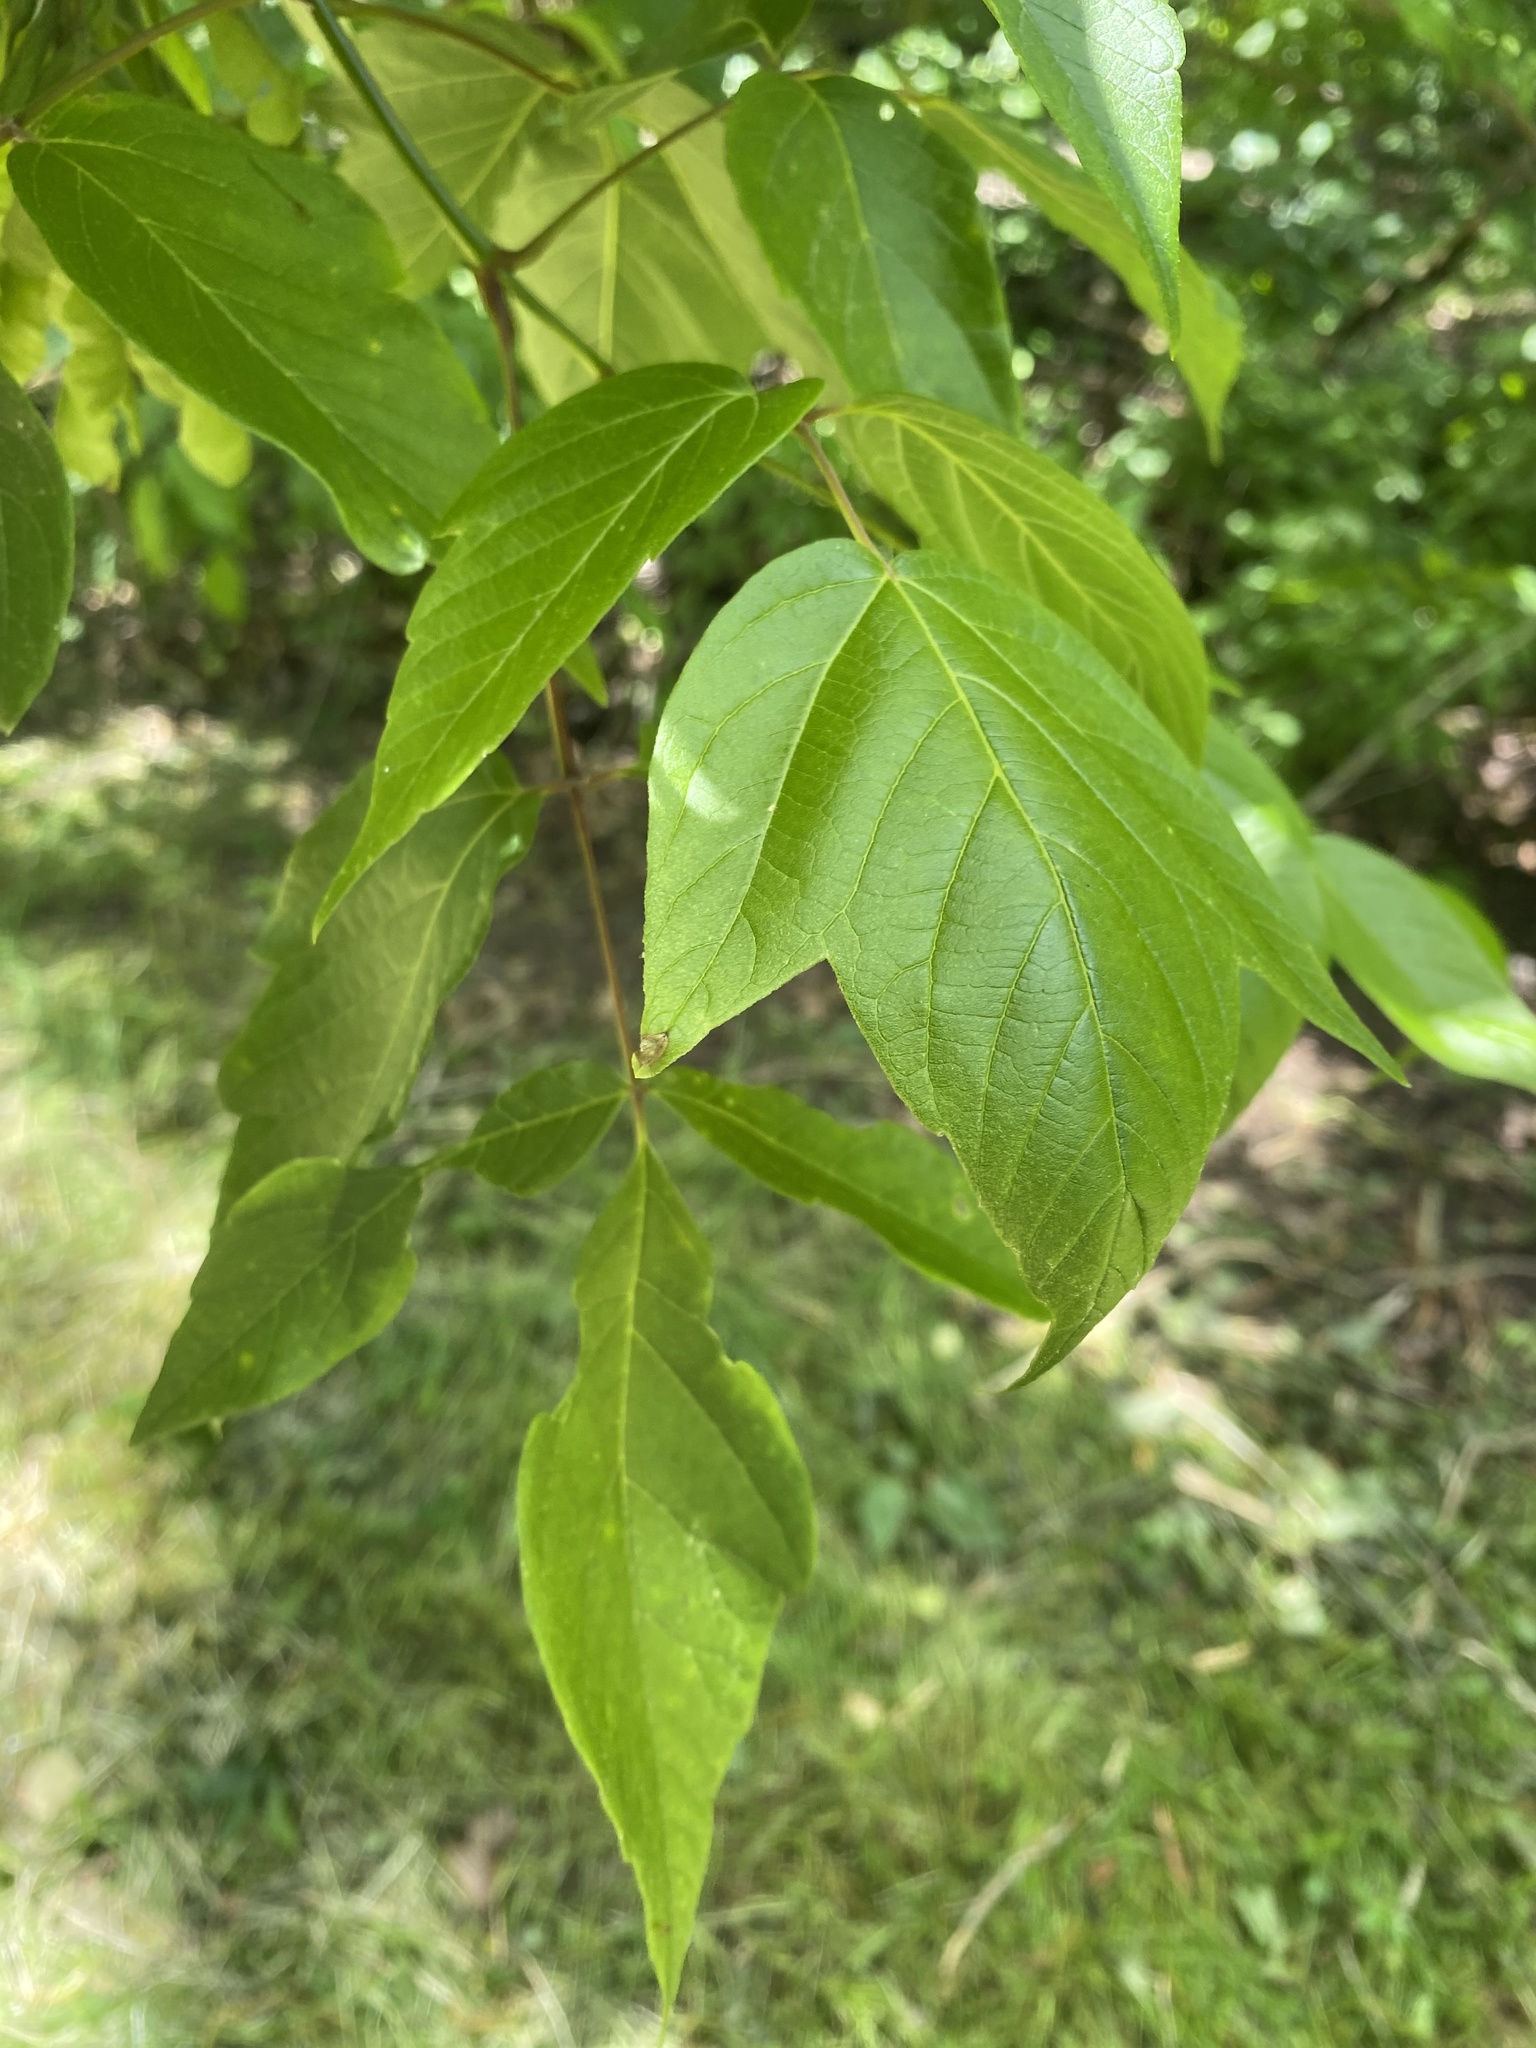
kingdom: Plantae
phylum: Tracheophyta
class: Magnoliopsida
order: Sapindales
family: Sapindaceae
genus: Acer
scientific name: Acer negundo
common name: Ashleaf maple
